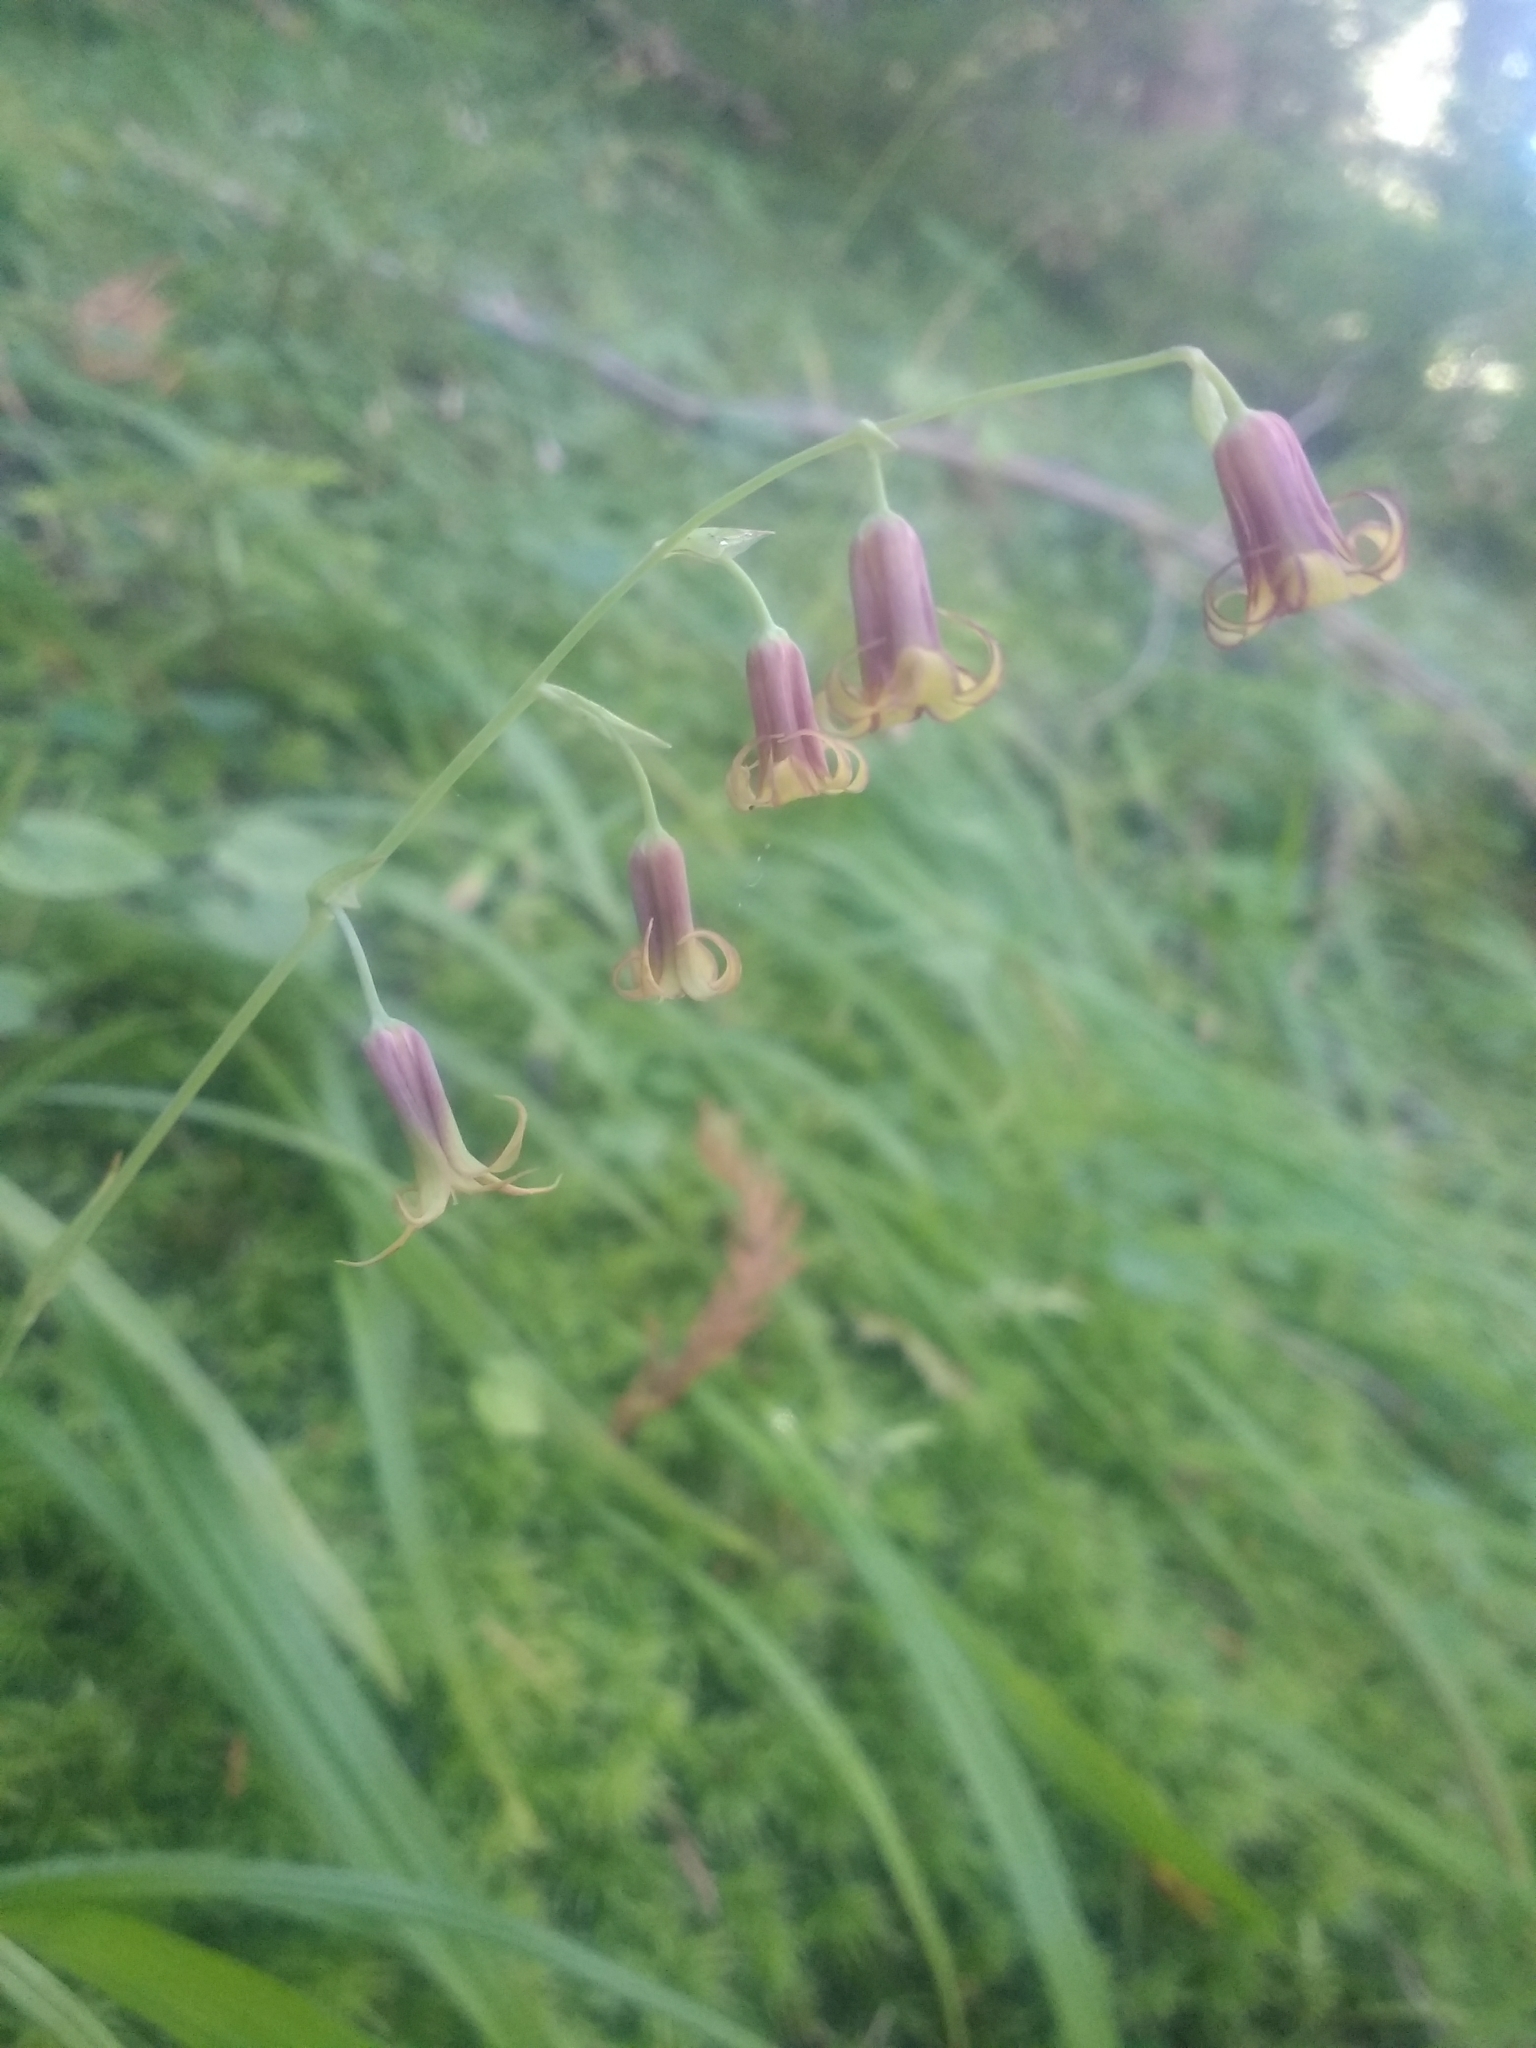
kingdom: Plantae
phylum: Tracheophyta
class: Liliopsida
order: Liliales
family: Melanthiaceae
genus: Anticlea
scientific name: Anticlea occidentalis
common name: Bronze-bells
